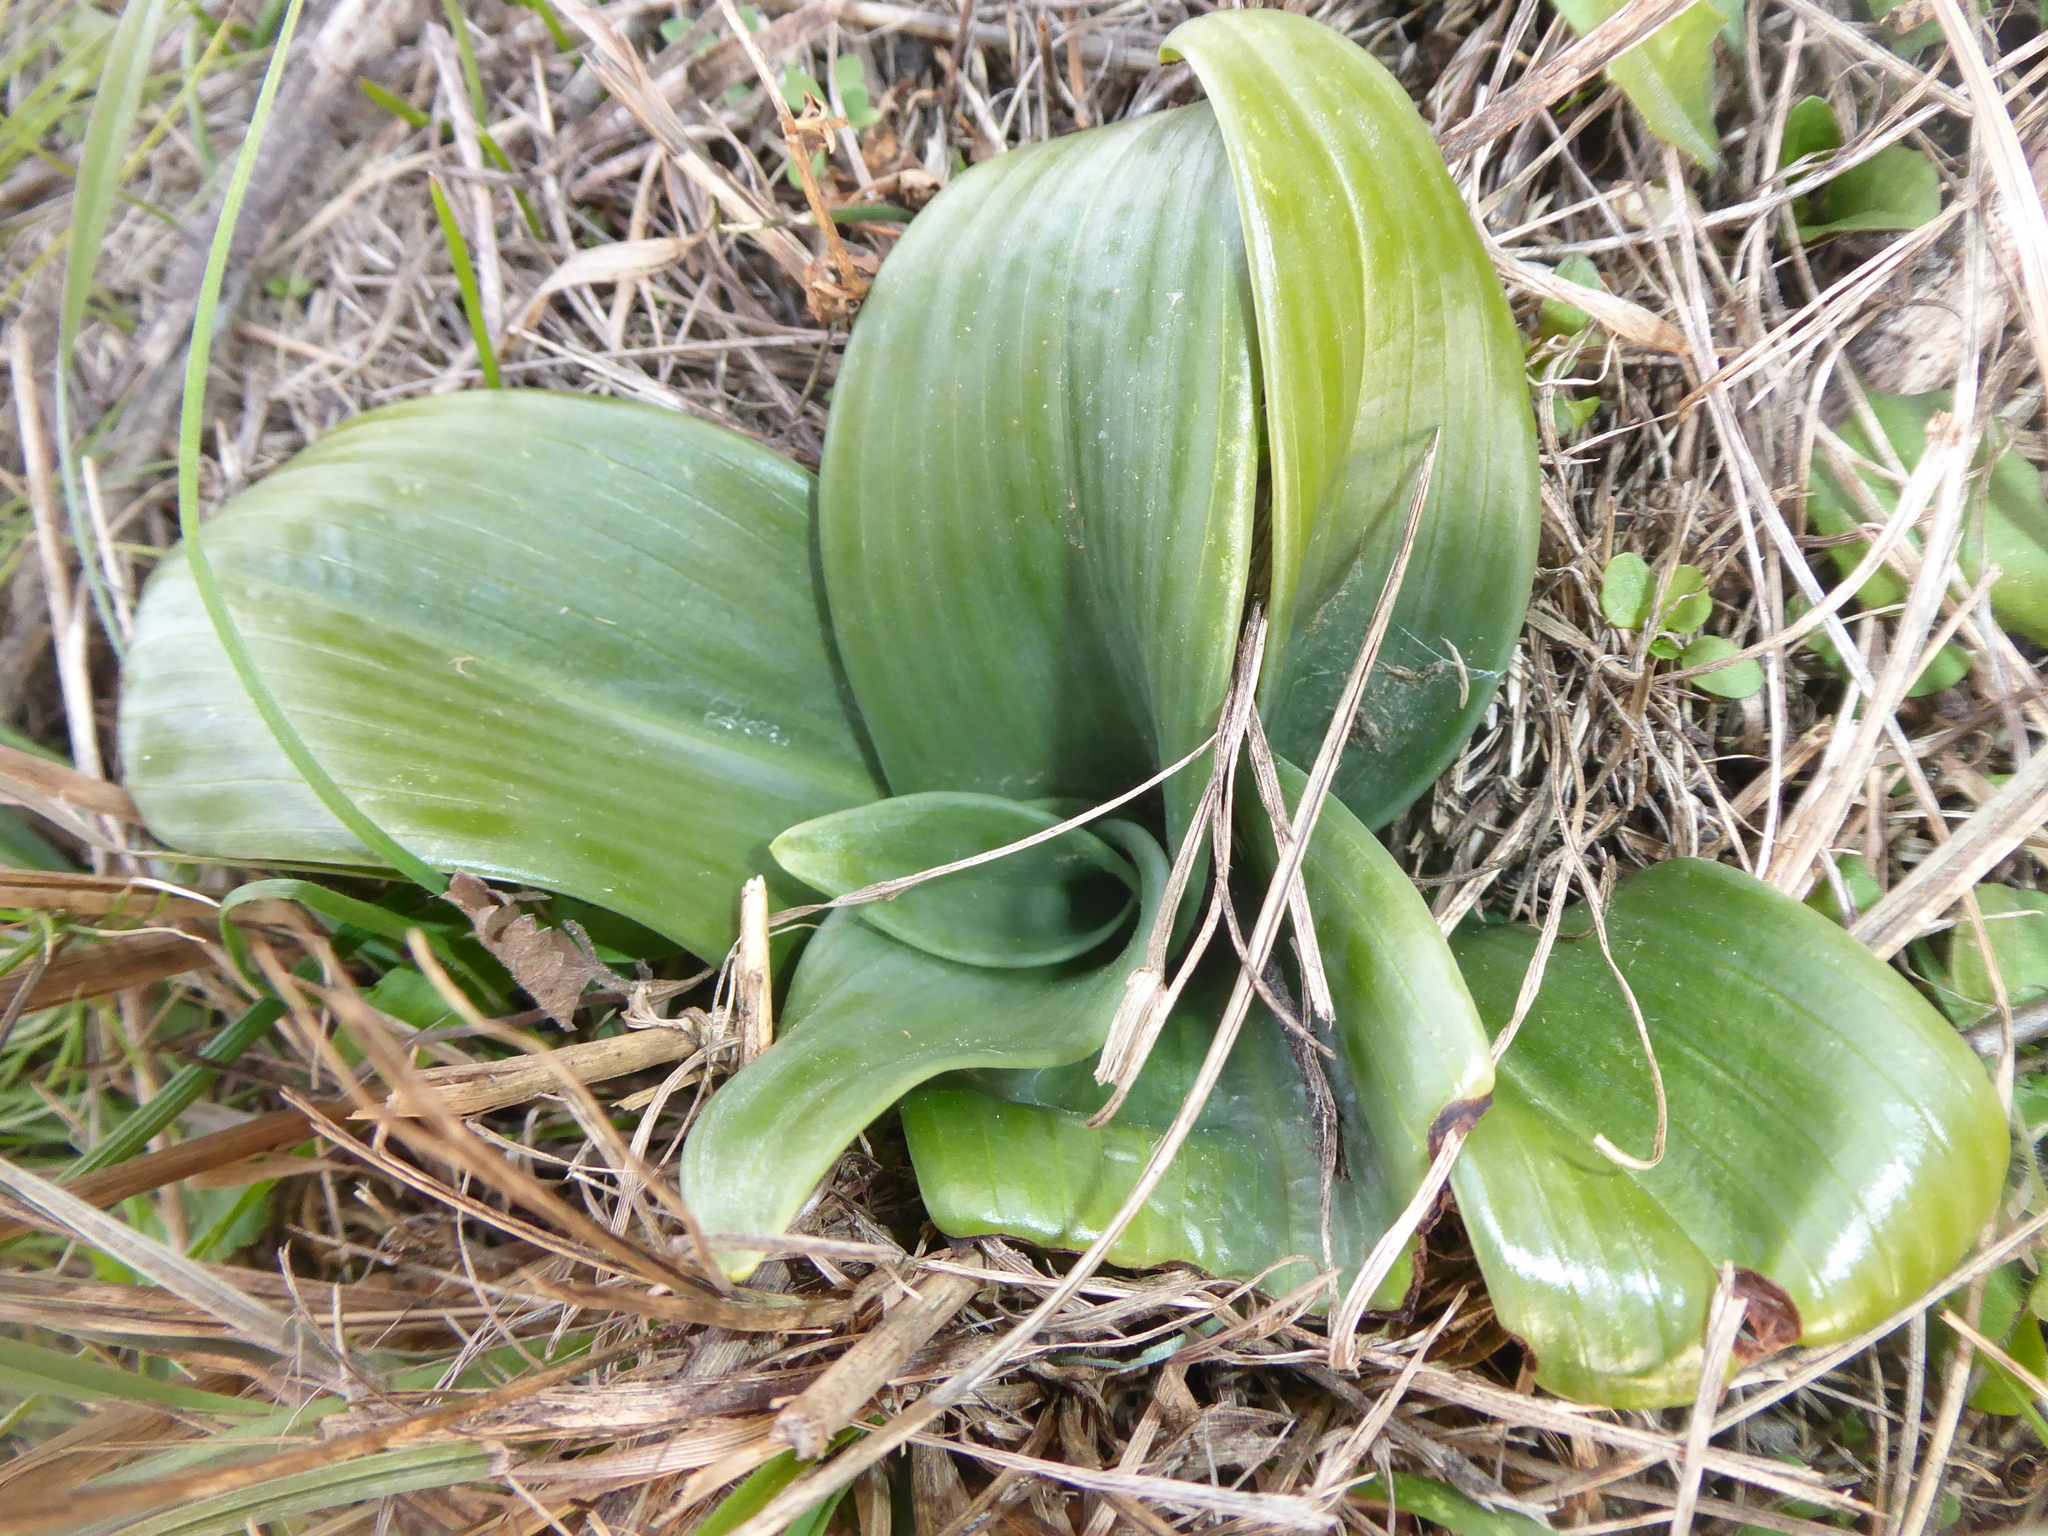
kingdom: Plantae
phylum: Tracheophyta
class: Liliopsida
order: Asparagales
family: Orchidaceae
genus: Himantoglossum
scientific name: Himantoglossum adriaticum
